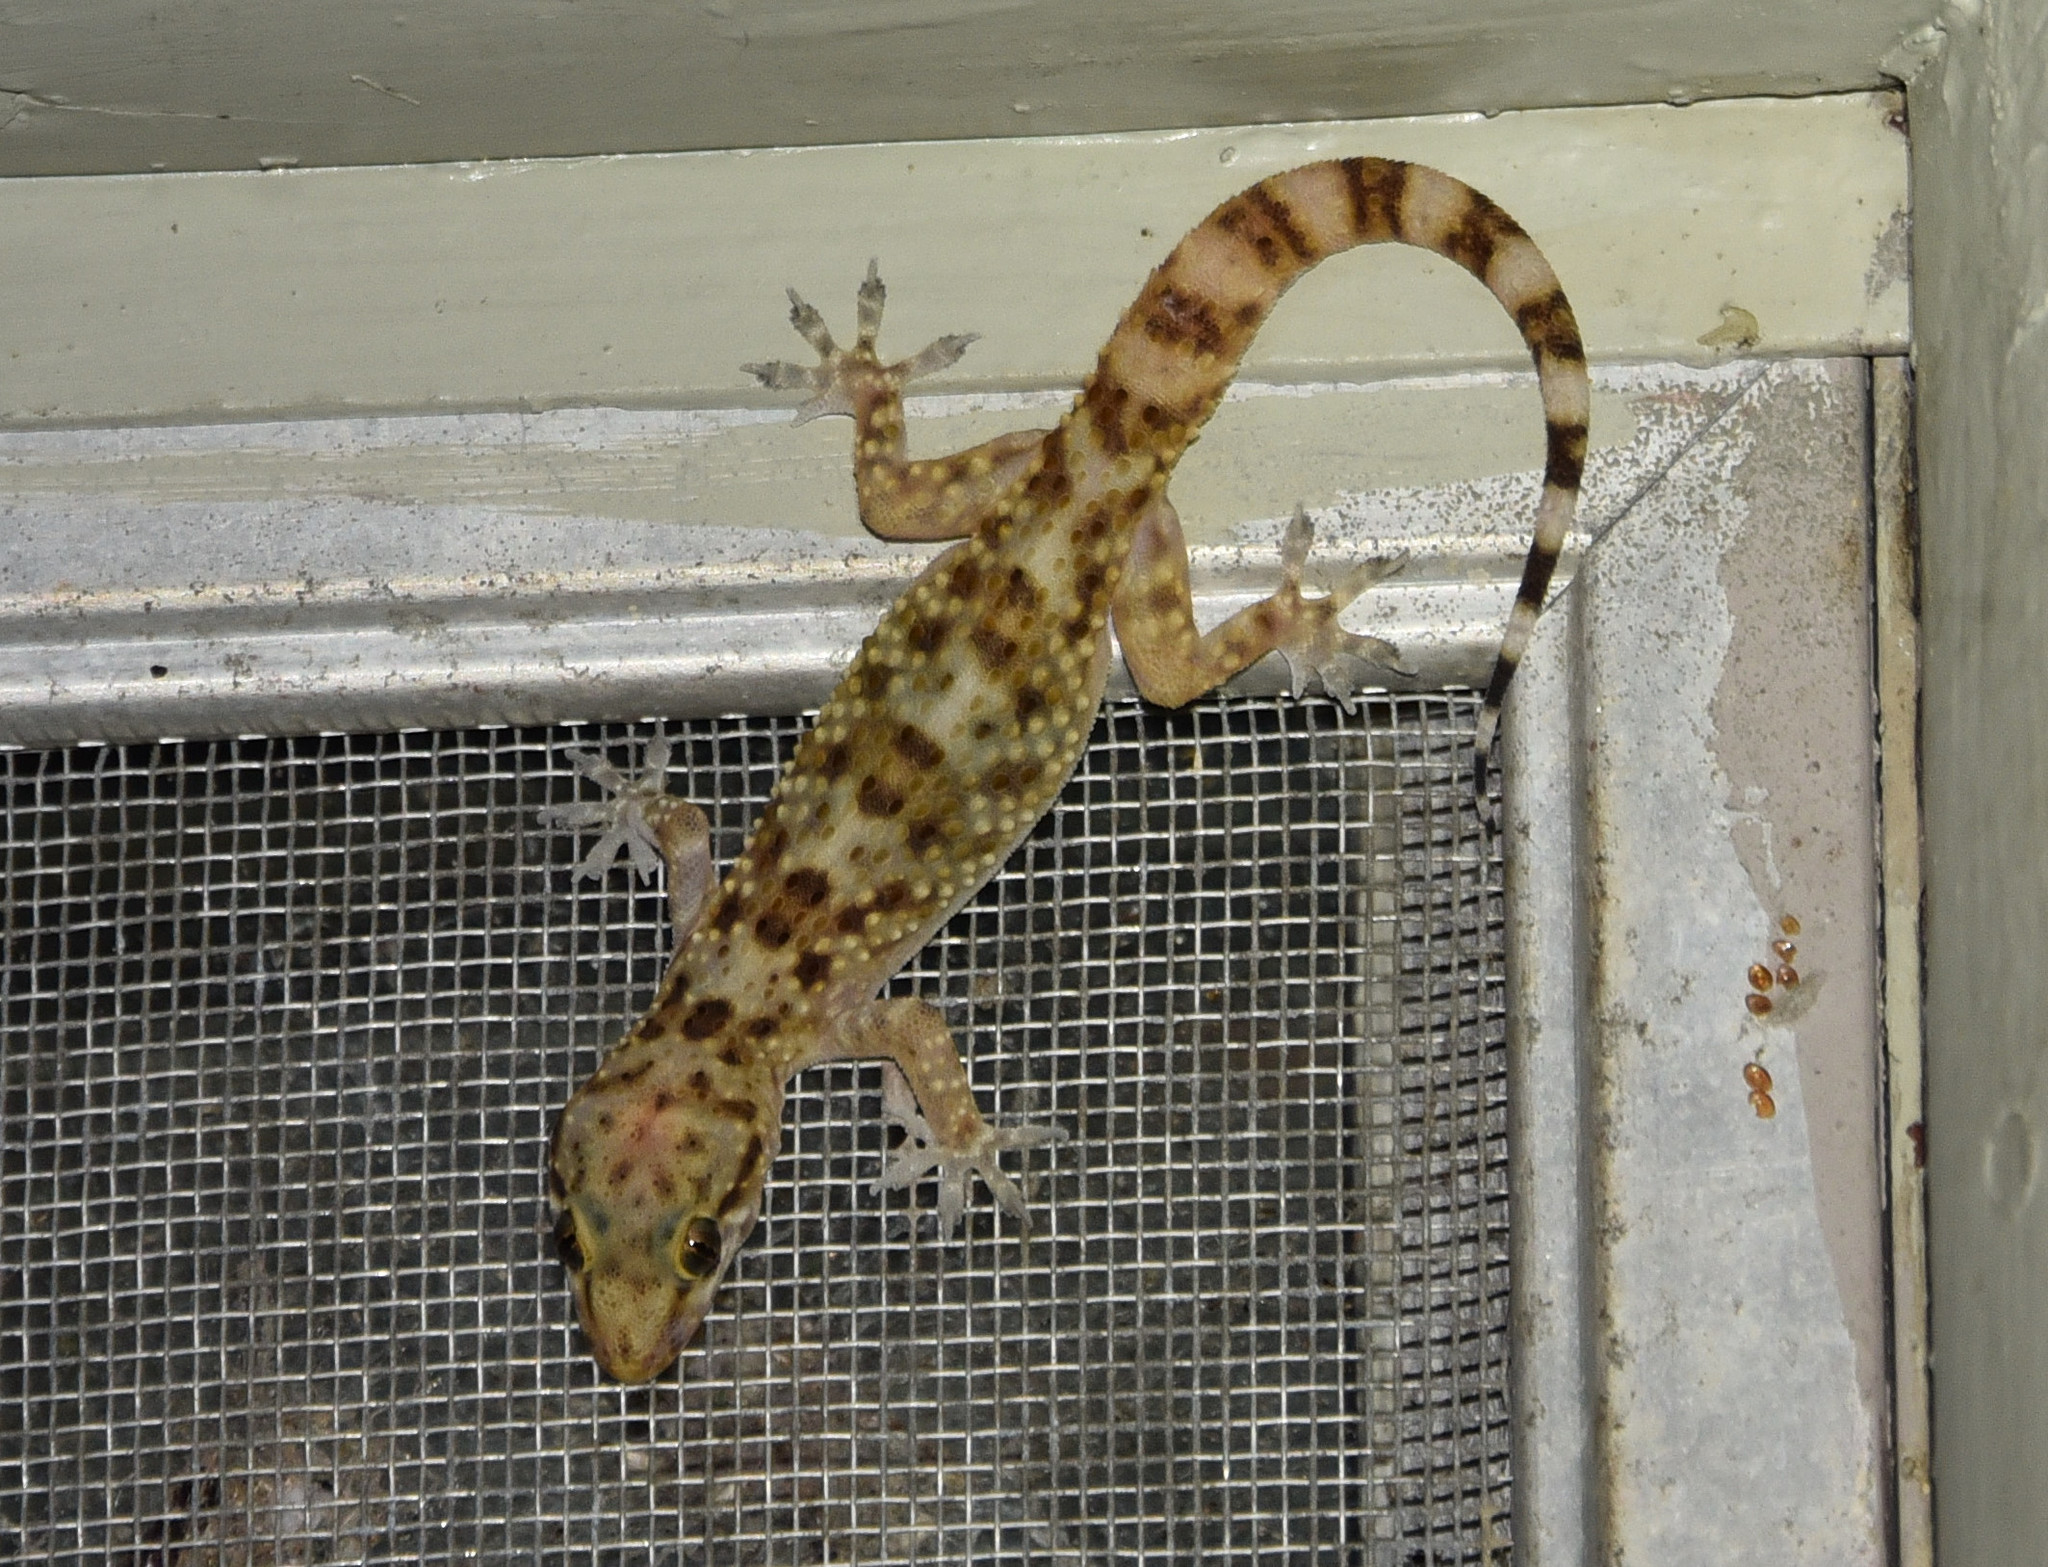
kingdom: Animalia
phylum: Chordata
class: Squamata
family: Gekkonidae
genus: Hemidactylus
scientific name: Hemidactylus turcicus
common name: Turkish gecko
